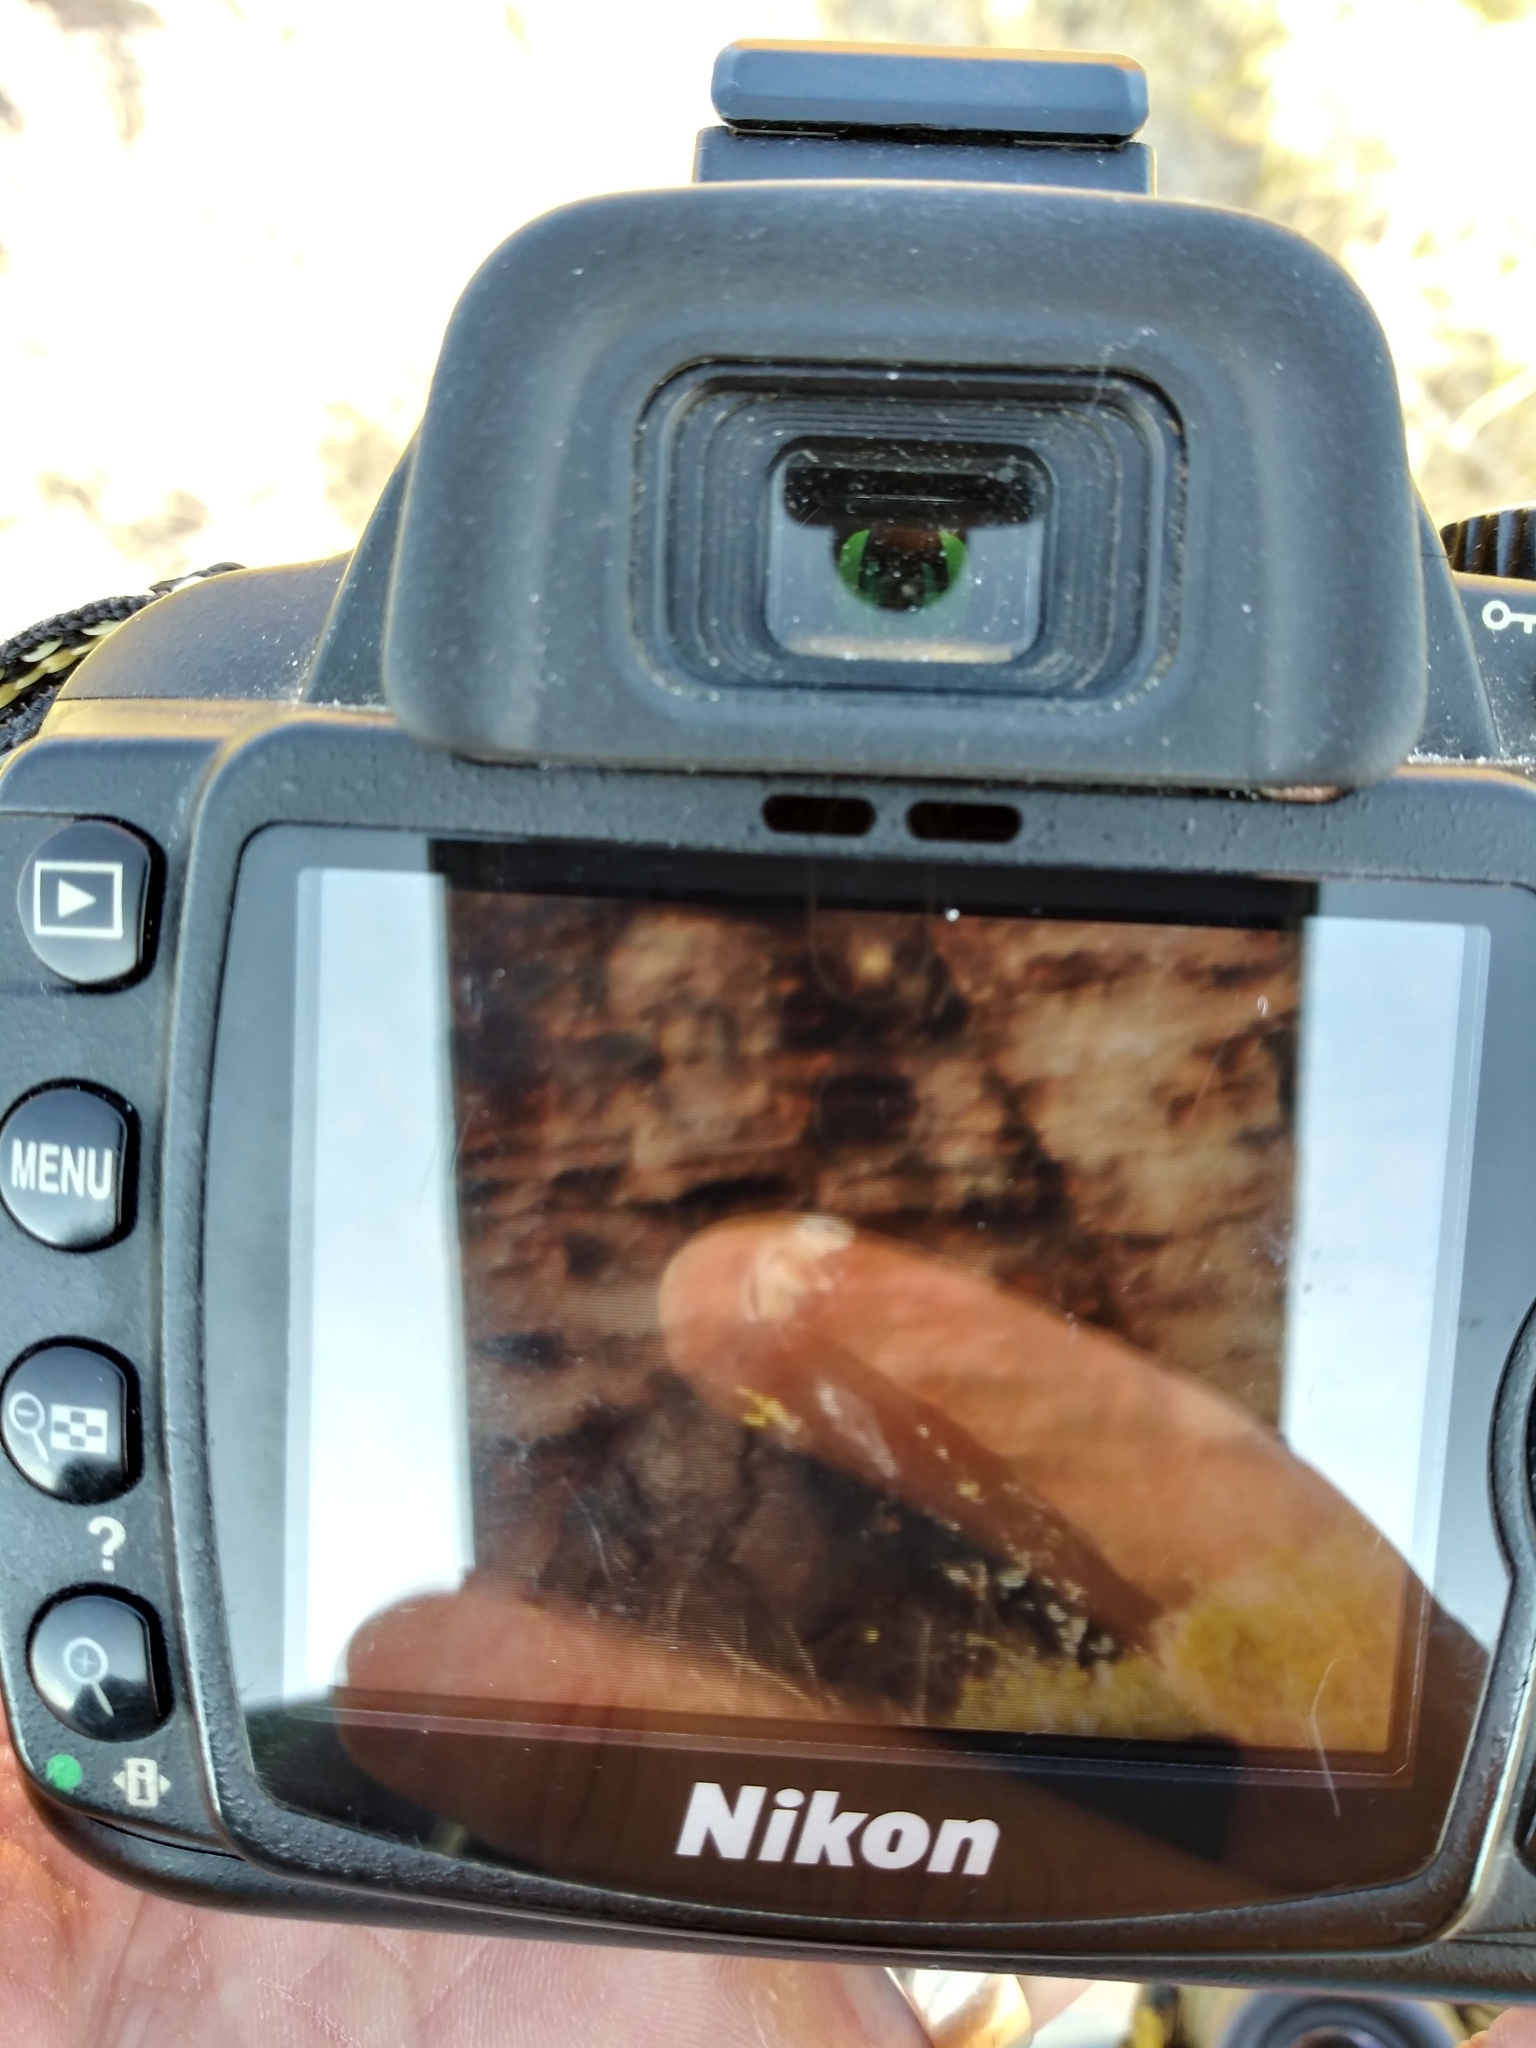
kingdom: Animalia
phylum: Chordata
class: Mammalia
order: Rodentia
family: Sciuridae
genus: Ammospermophilus
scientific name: Ammospermophilus leucurus
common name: White-tailed antelope squirrel
